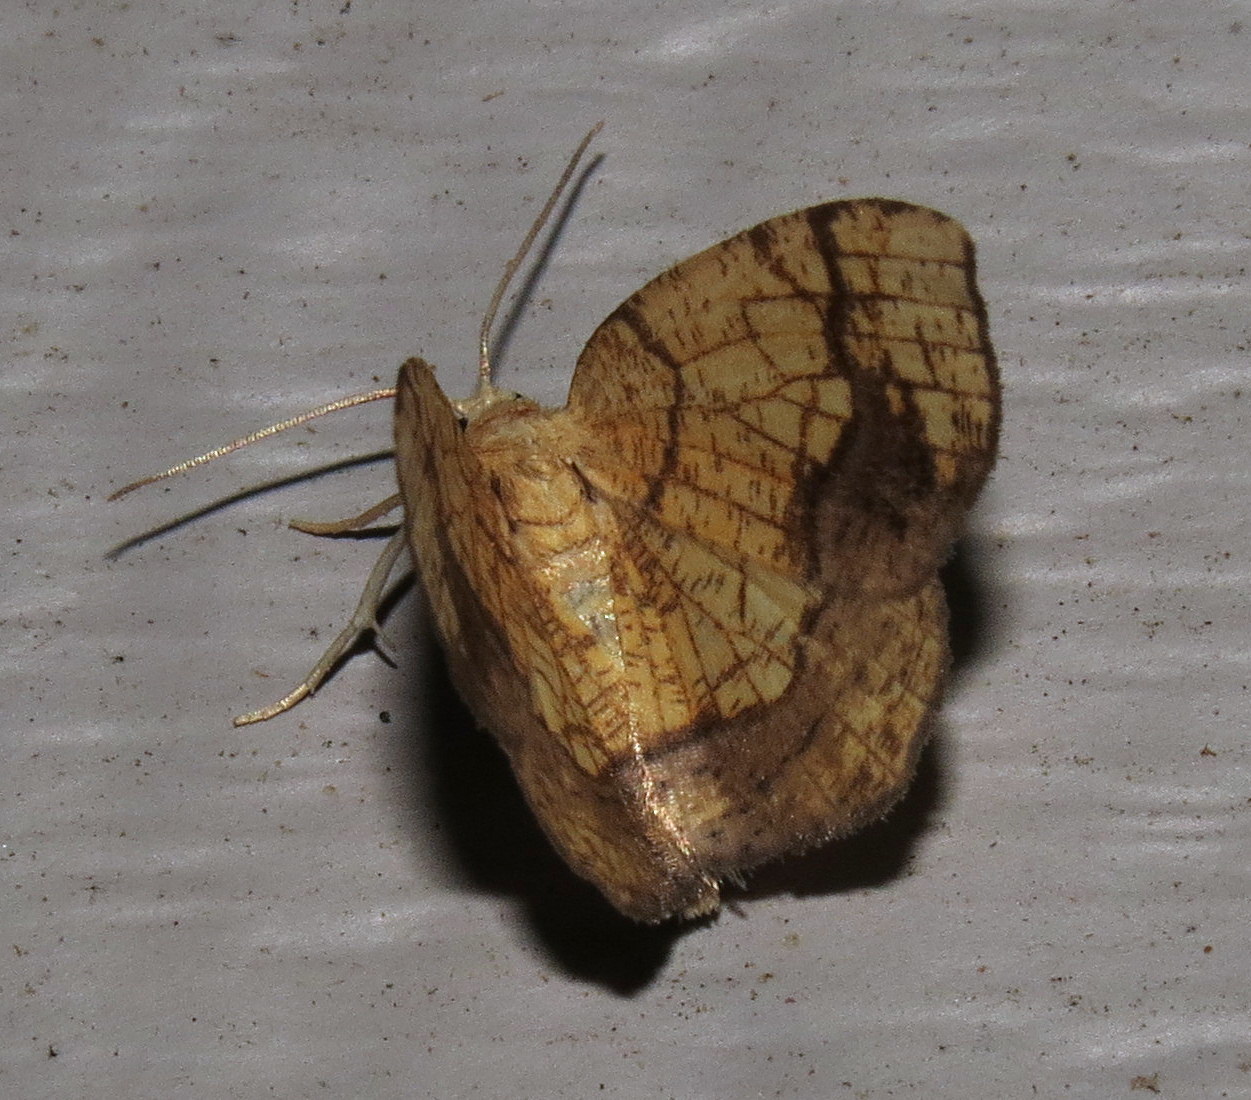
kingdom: Animalia
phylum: Arthropoda
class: Insecta
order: Lepidoptera
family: Geometridae
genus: Nematocampa
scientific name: Nematocampa resistaria
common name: Horned spanworm moth
